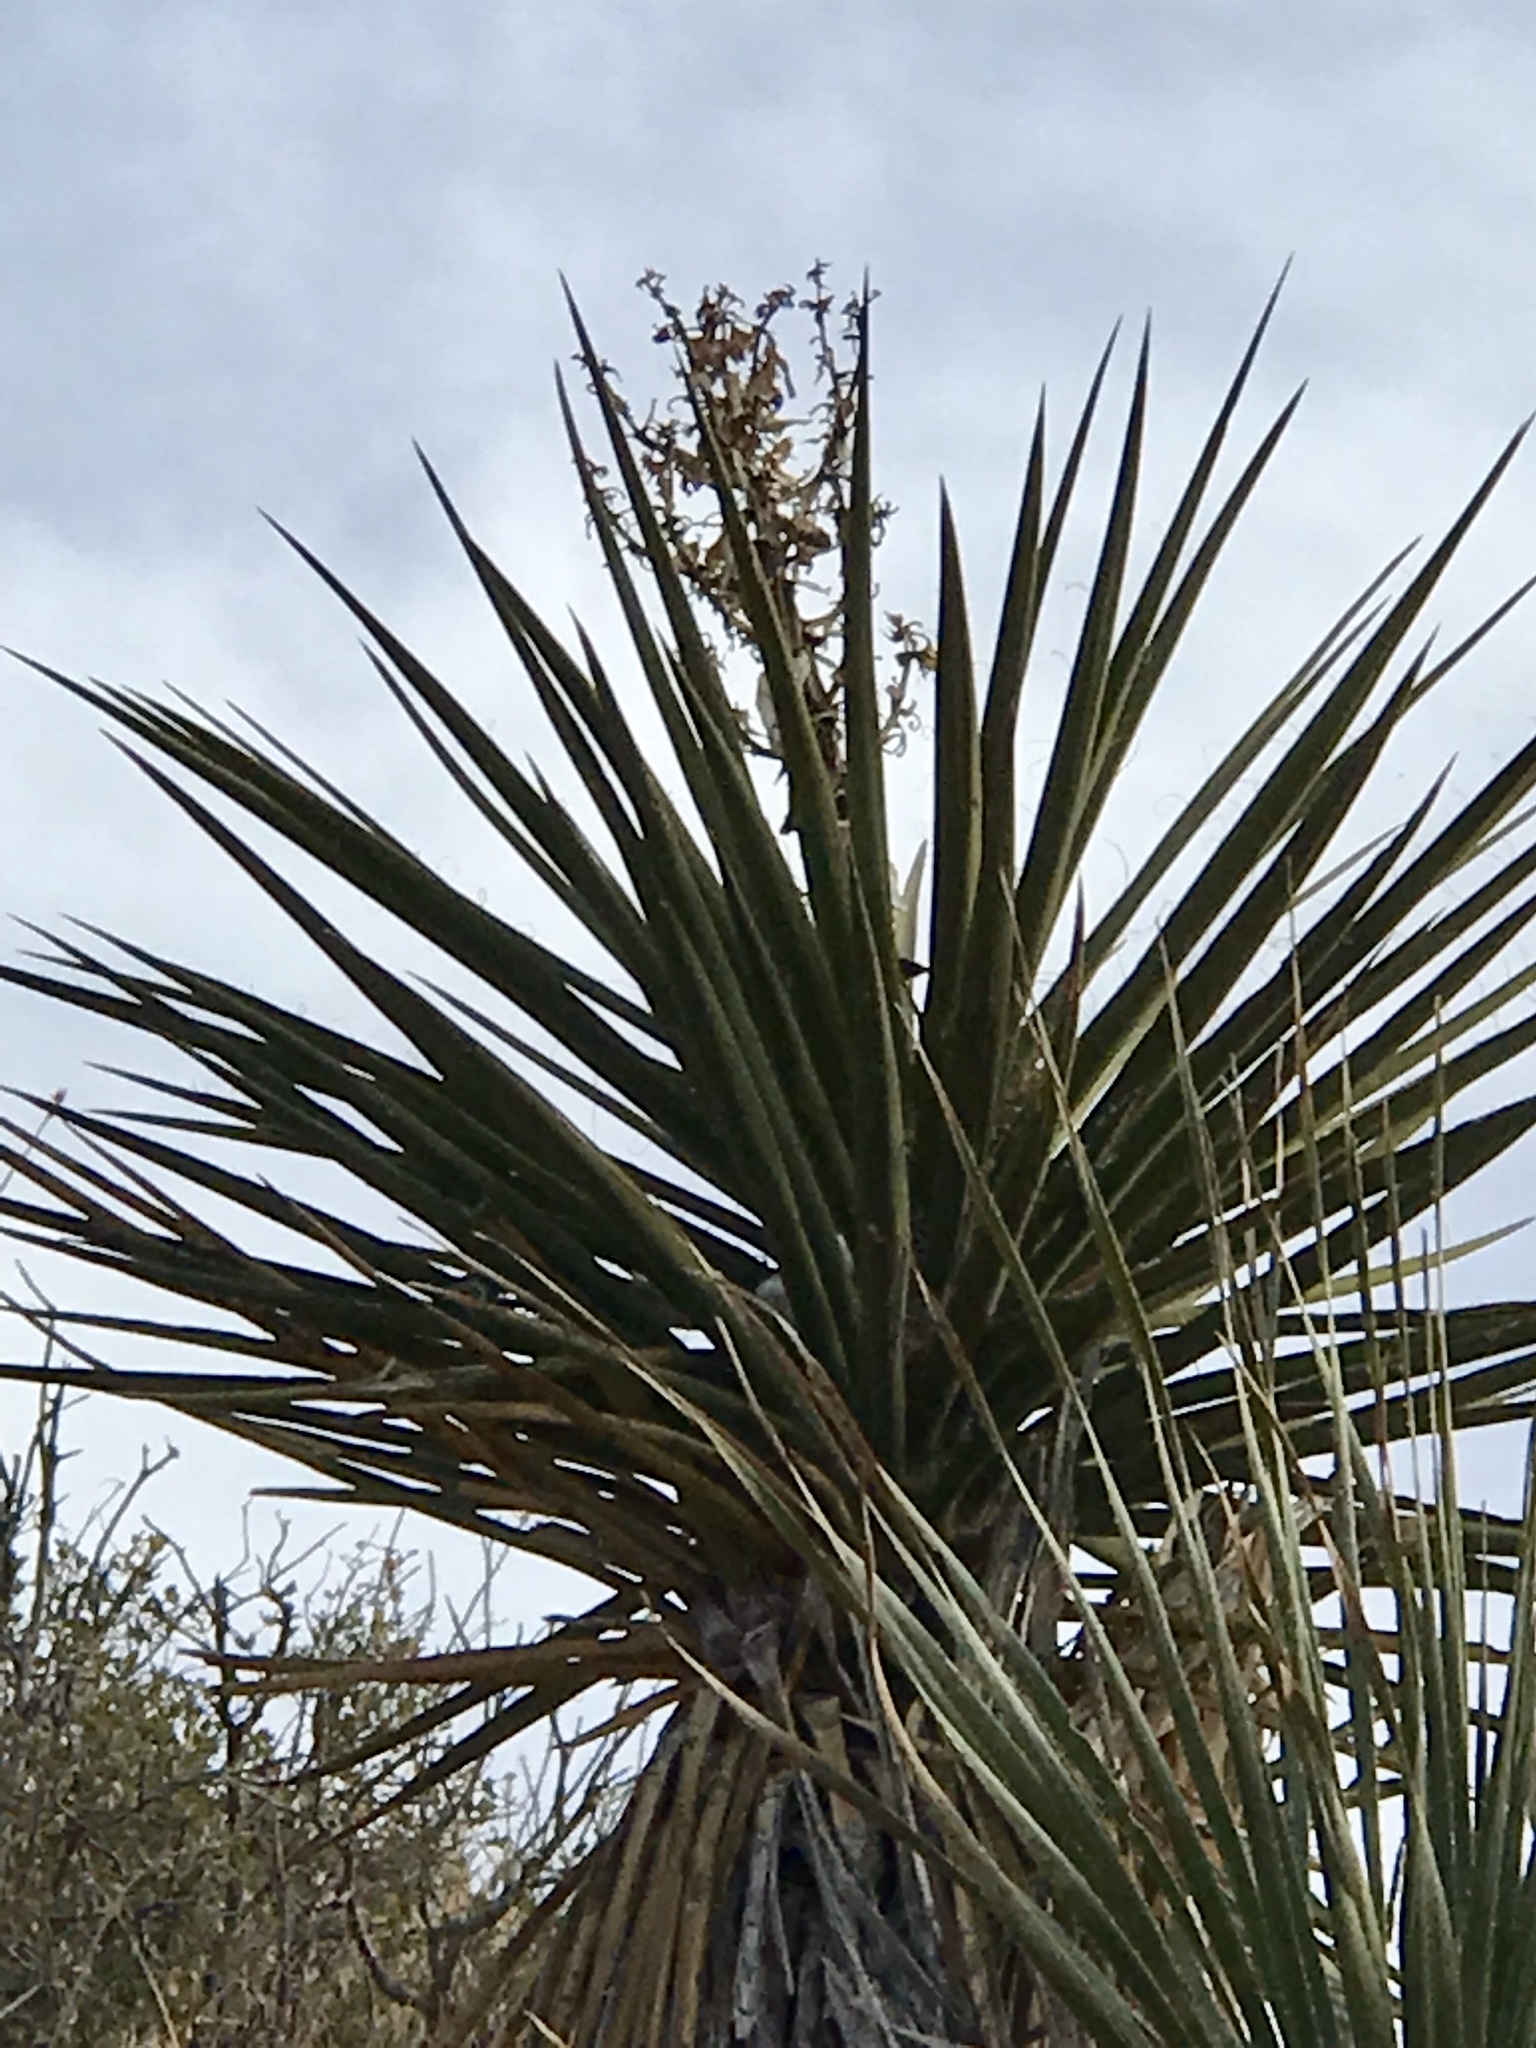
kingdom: Plantae
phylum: Tracheophyta
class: Liliopsida
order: Asparagales
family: Asparagaceae
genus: Yucca
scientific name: Yucca treculiana
